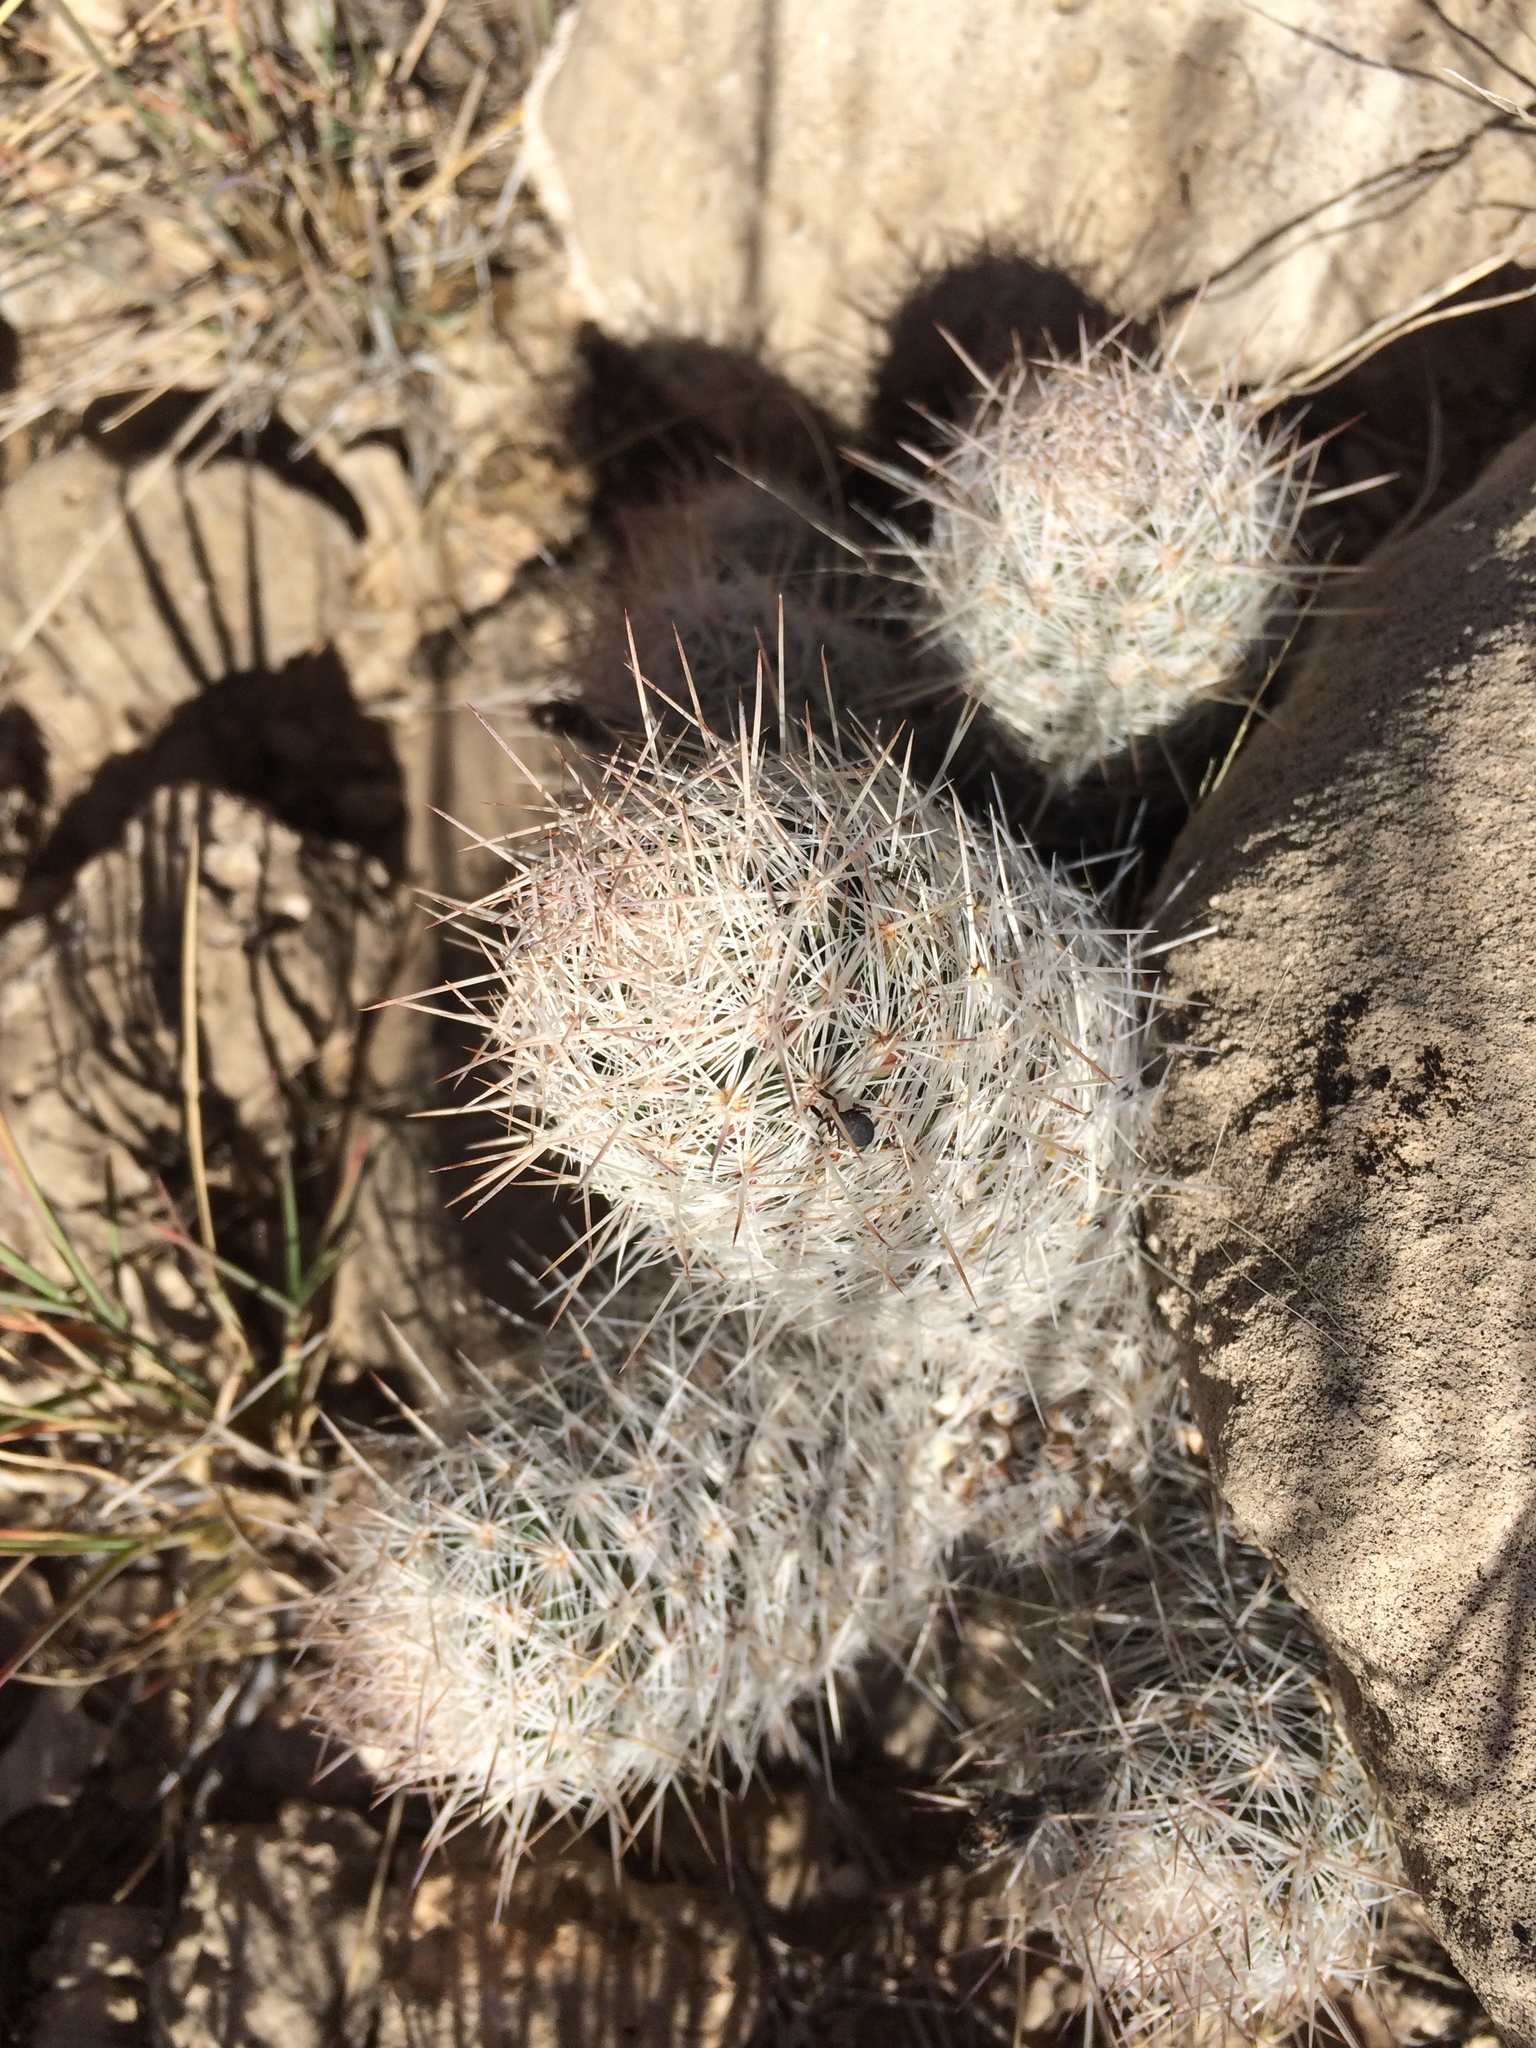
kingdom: Plantae
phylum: Tracheophyta
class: Magnoliopsida
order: Caryophyllales
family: Cactaceae
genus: Pelecyphora
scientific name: Pelecyphora tuberculosa
